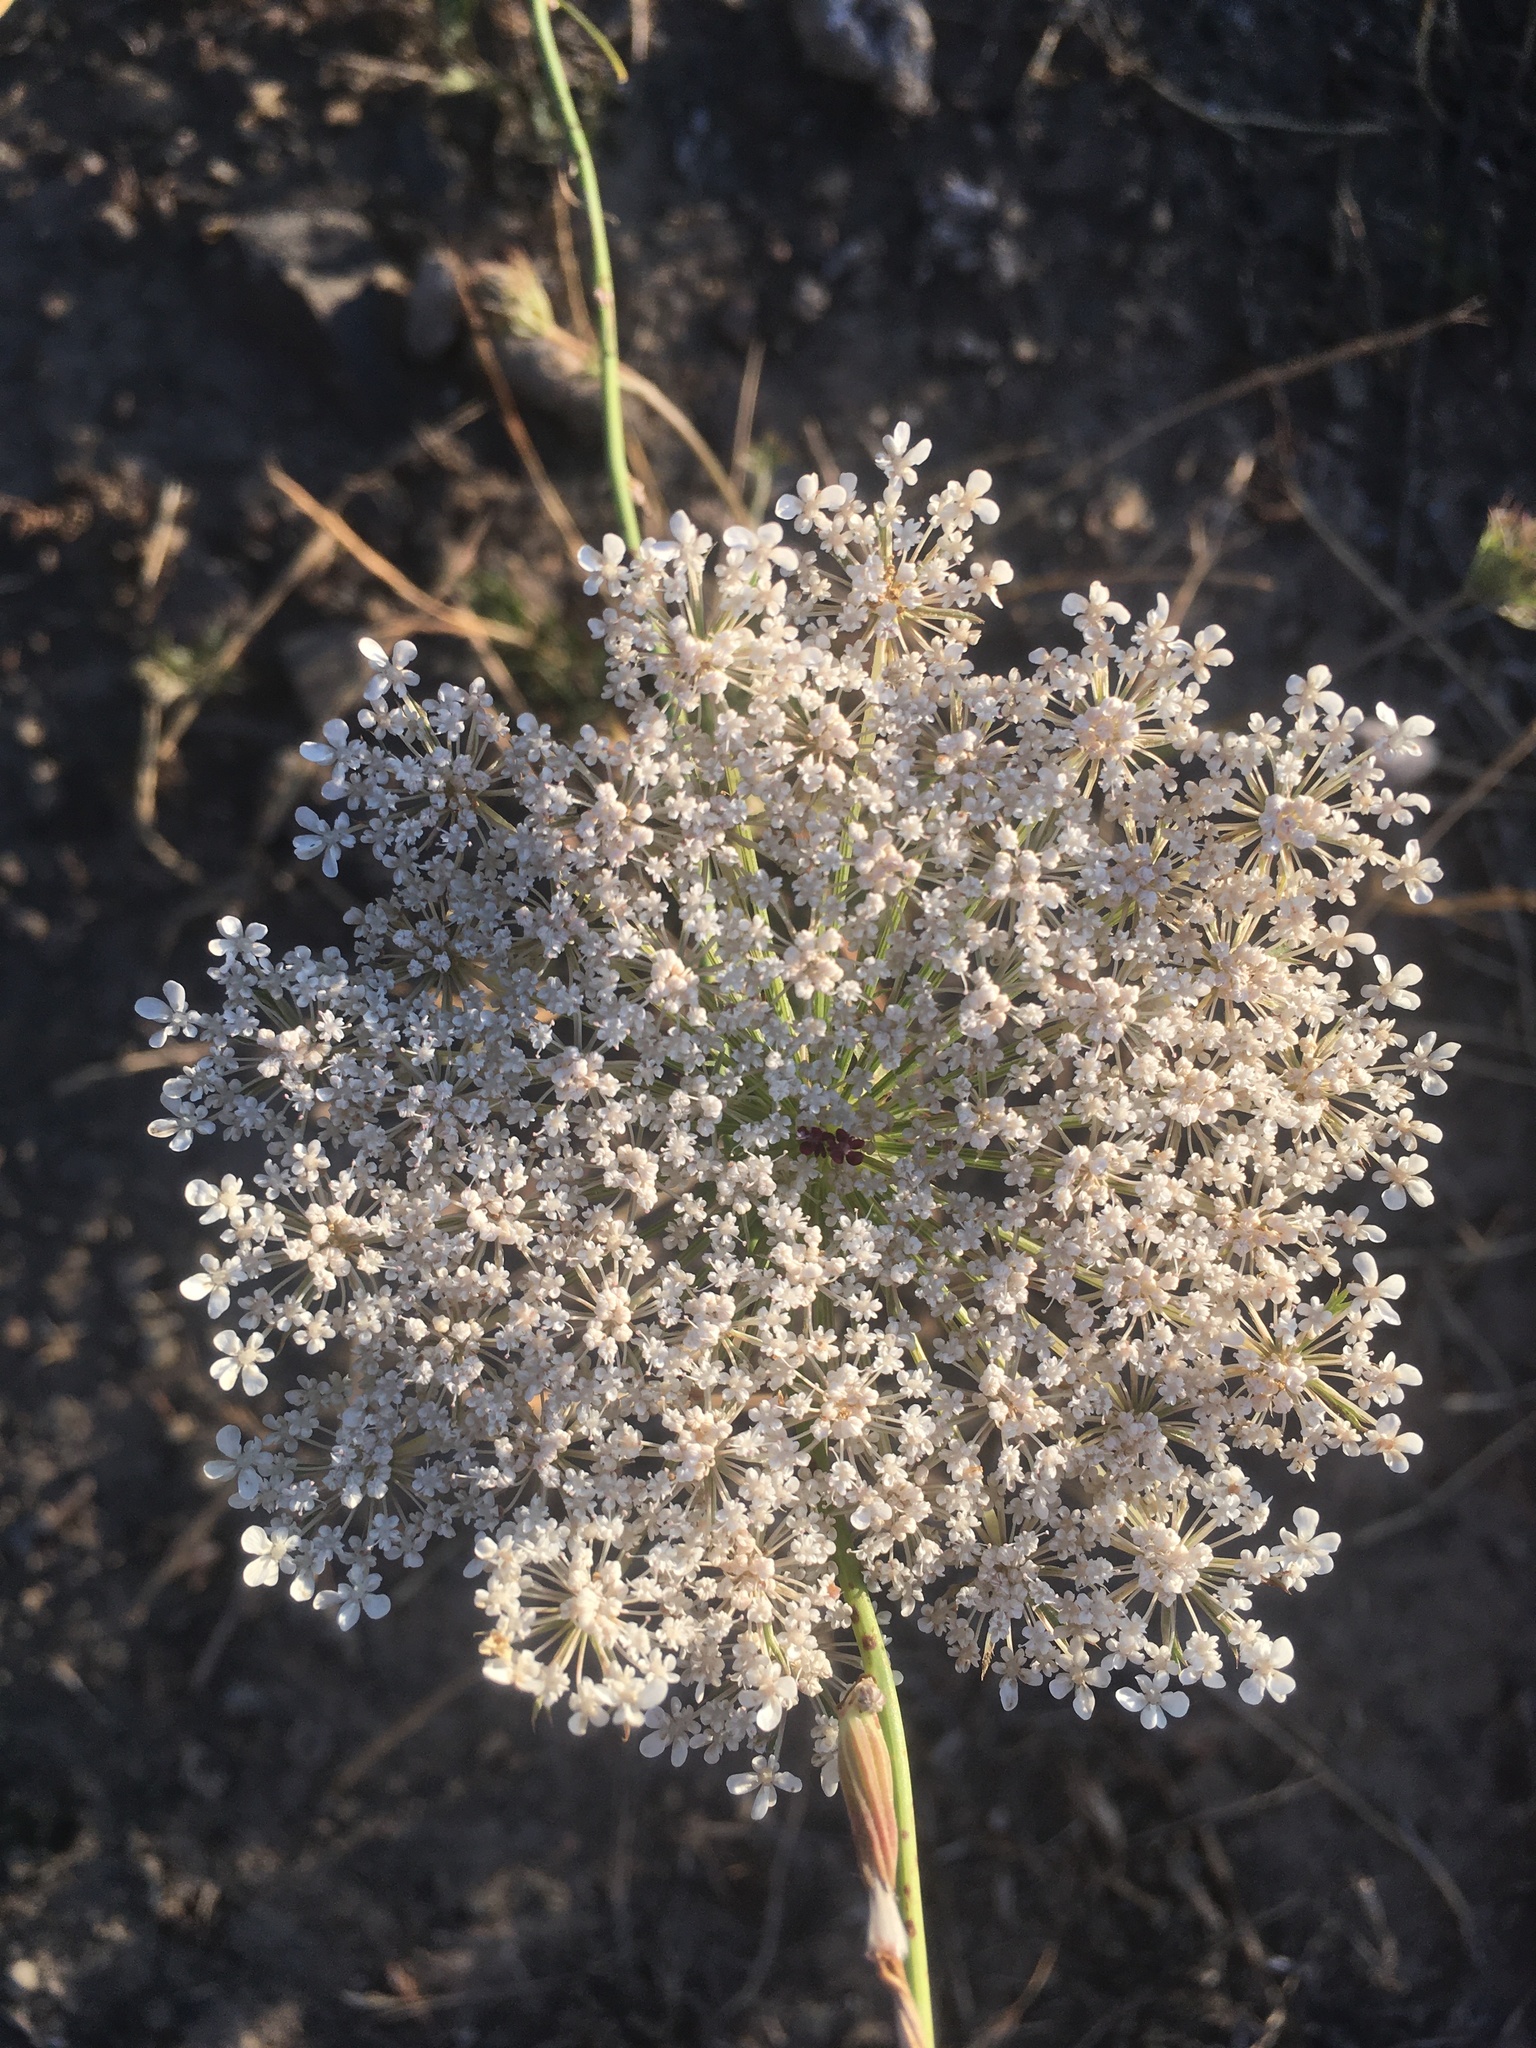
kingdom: Plantae
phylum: Tracheophyta
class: Magnoliopsida
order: Apiales
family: Apiaceae
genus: Daucus
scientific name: Daucus carota
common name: Wild carrot
